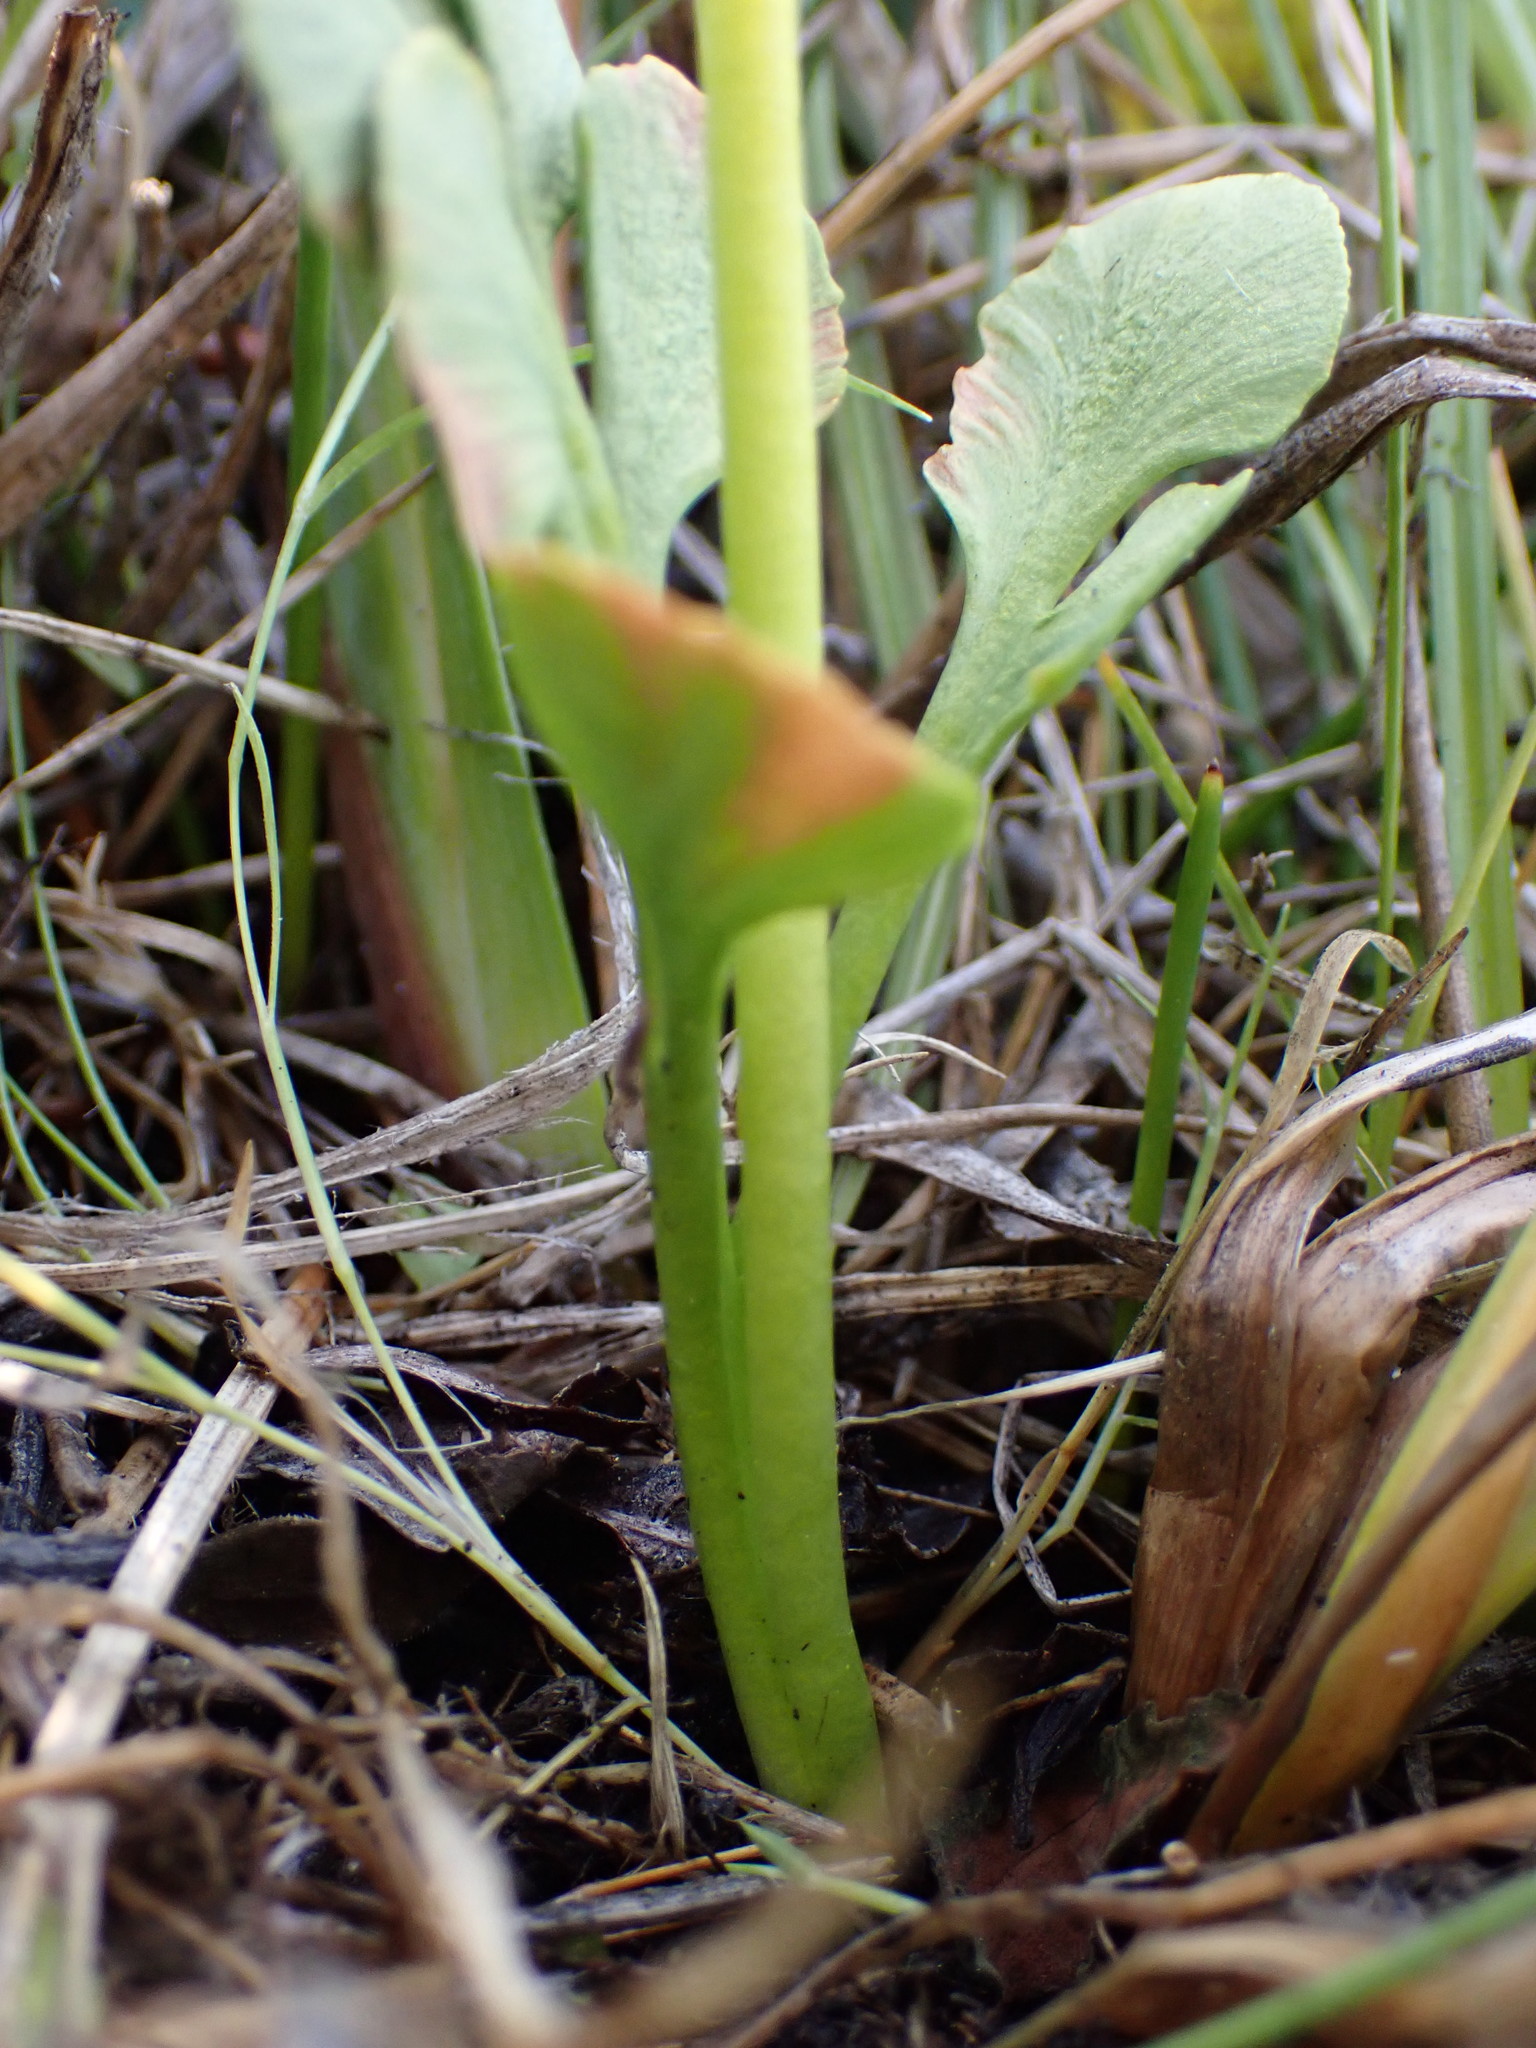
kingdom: Plantae
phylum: Tracheophyta
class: Polypodiopsida
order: Ophioglossales
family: Ophioglossaceae
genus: Botrychium
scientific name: Botrychium simplex
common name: Least moonwort
